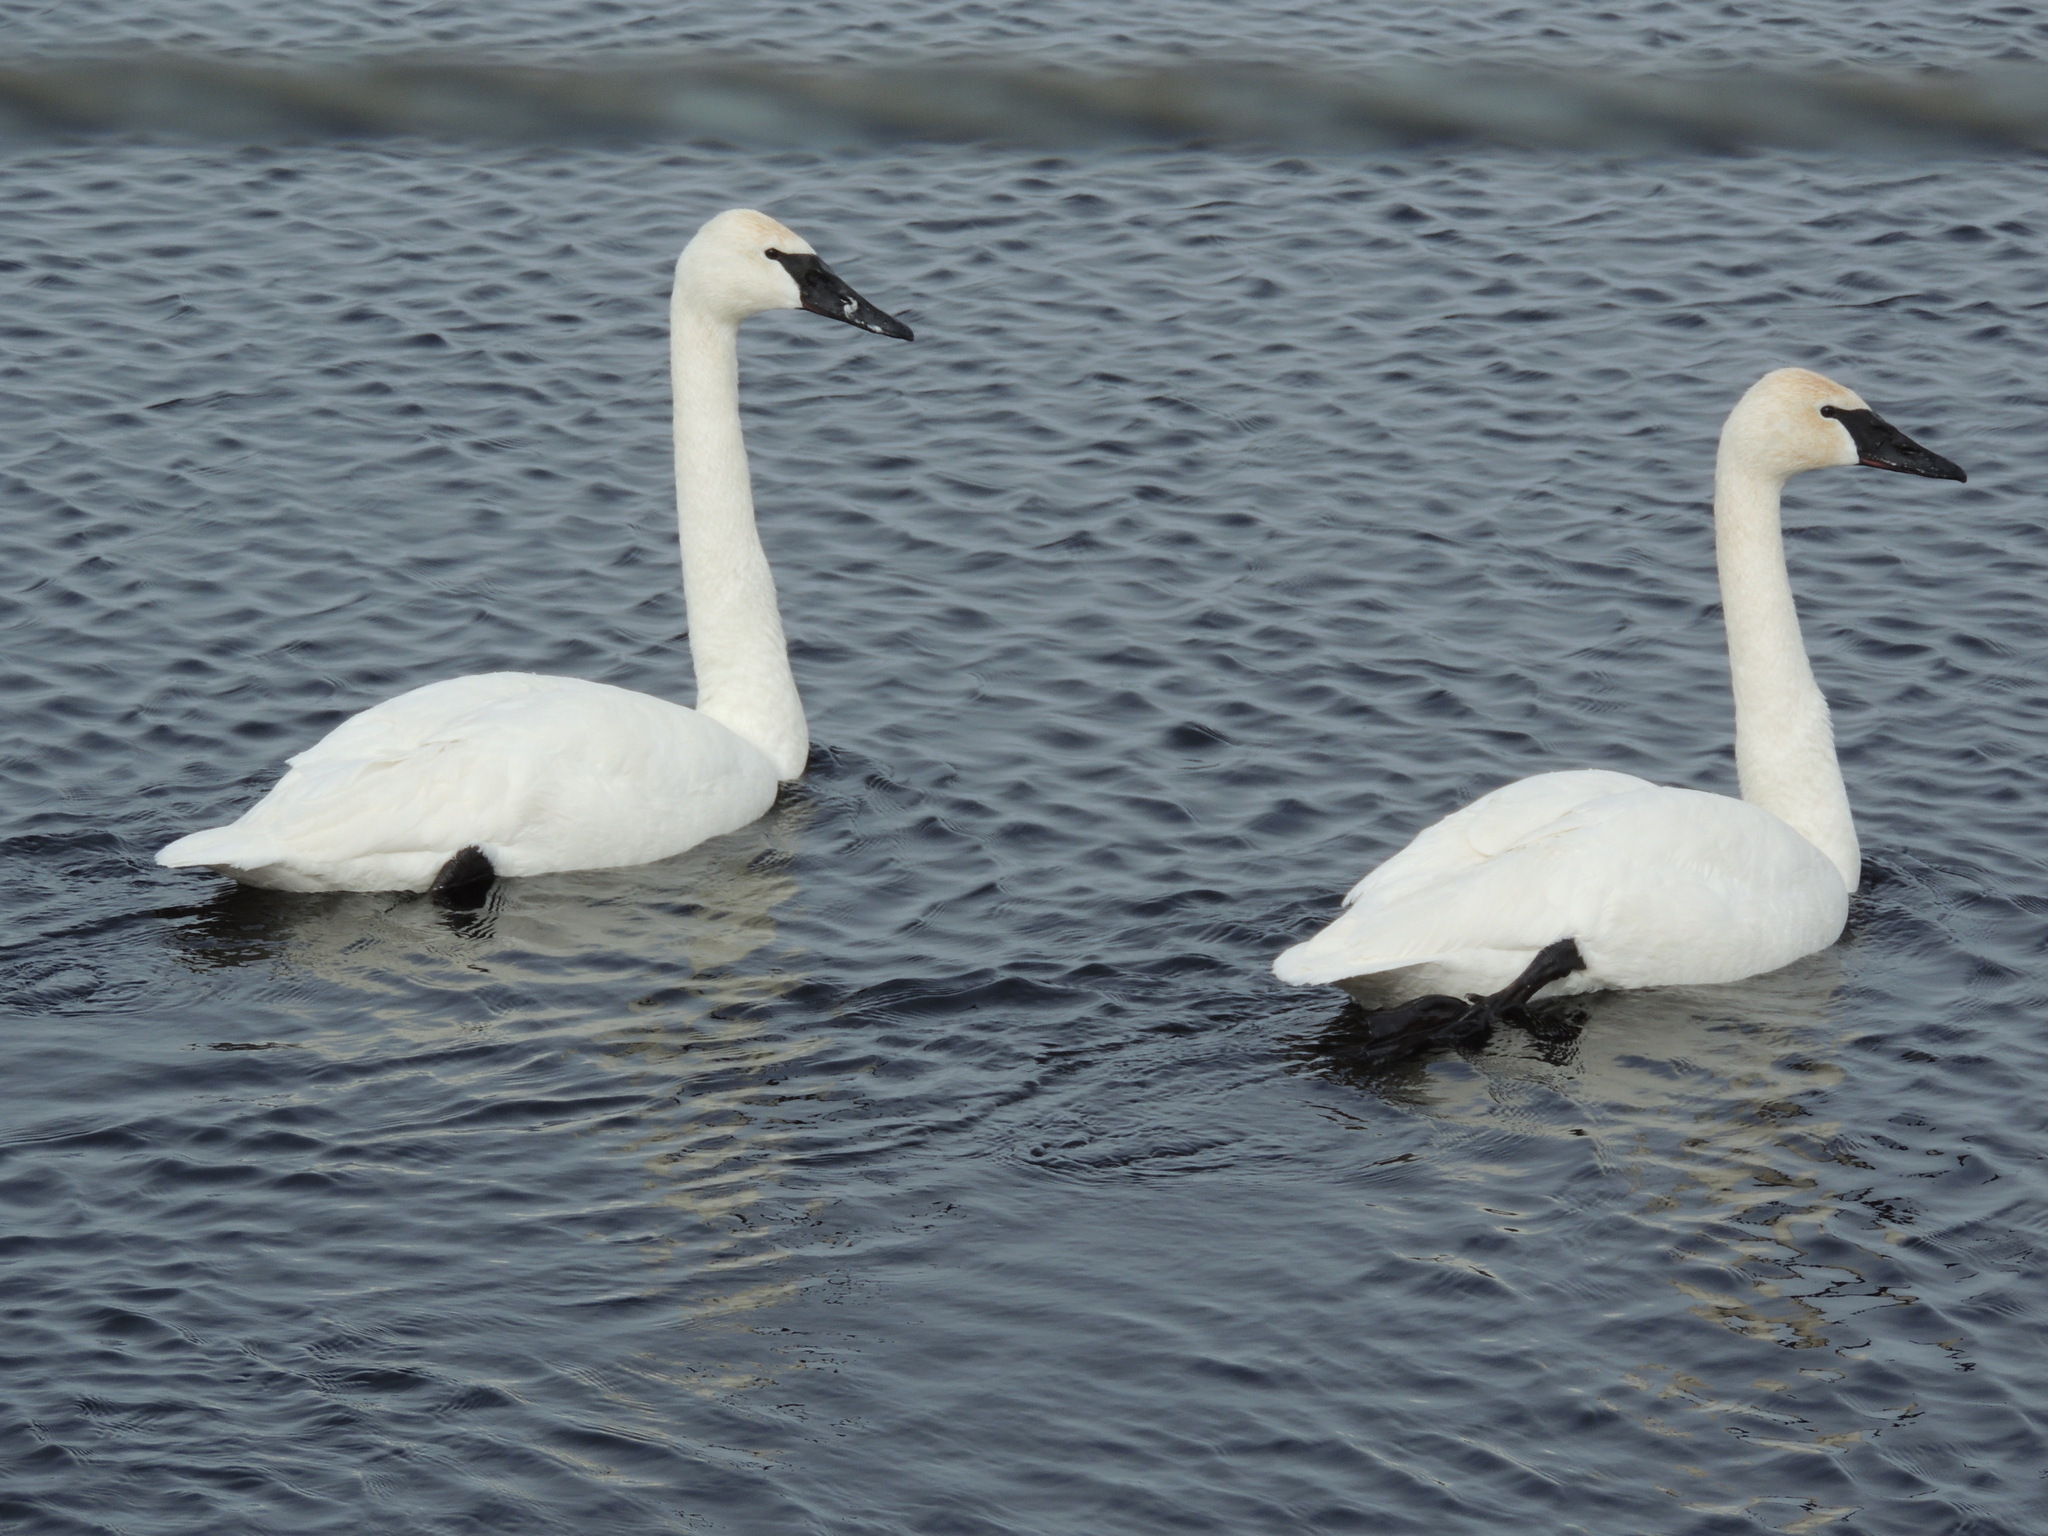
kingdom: Animalia
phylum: Chordata
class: Aves
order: Anseriformes
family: Anatidae
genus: Cygnus
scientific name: Cygnus buccinator
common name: Trumpeter swan
